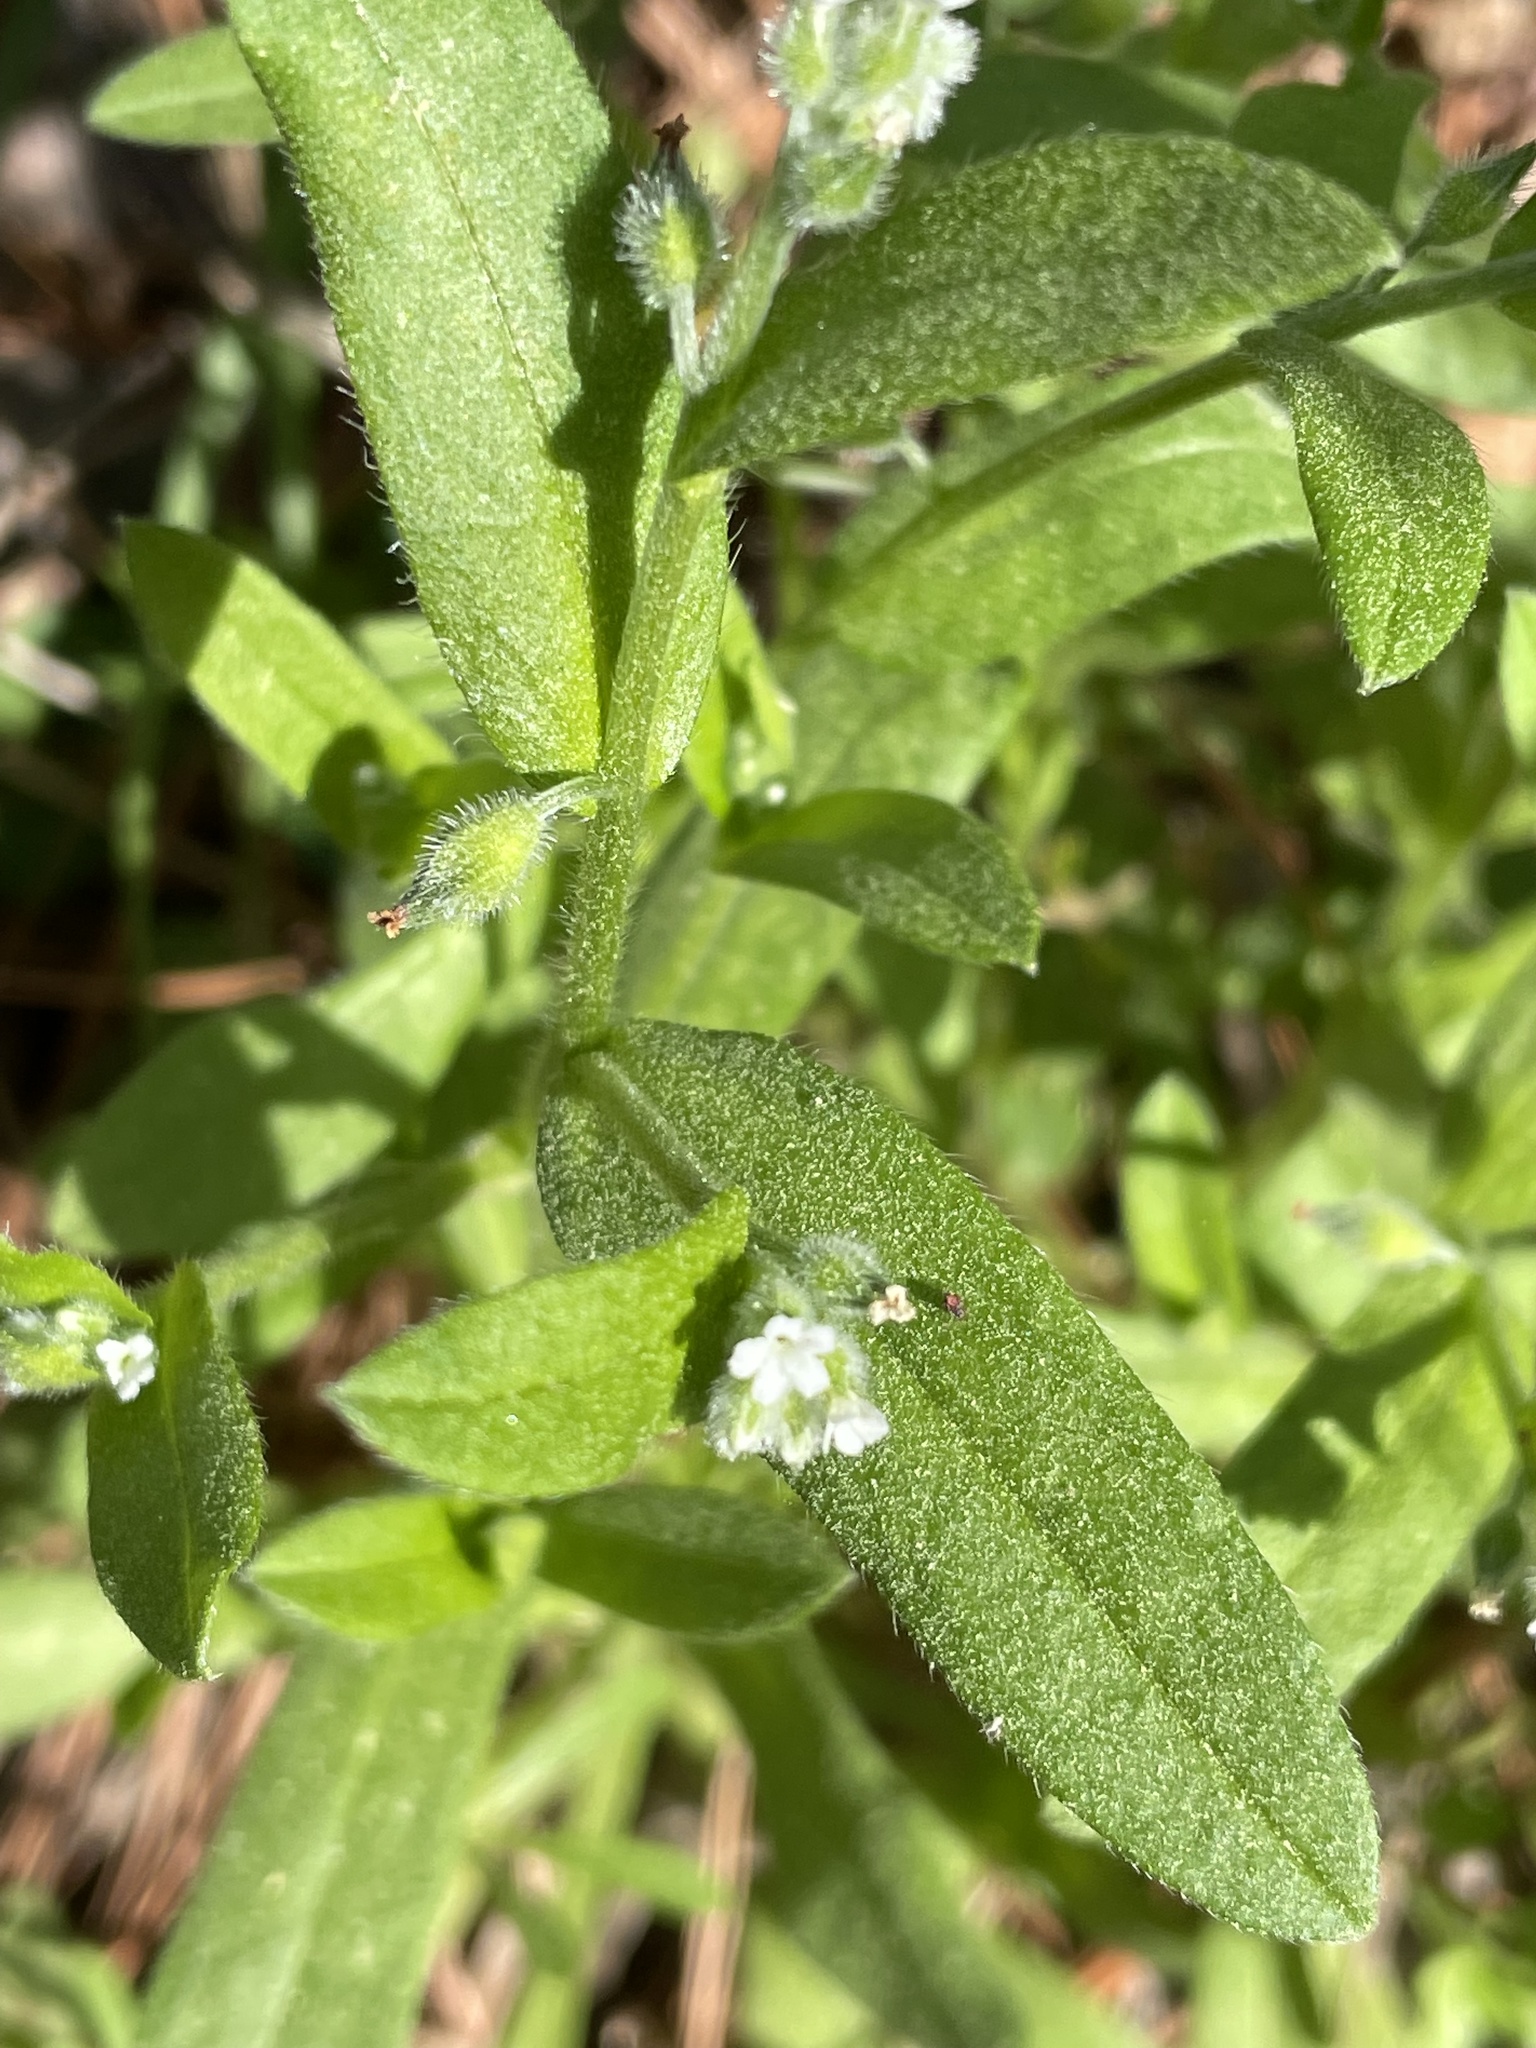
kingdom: Plantae
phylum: Tracheophyta
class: Magnoliopsida
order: Boraginales
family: Boraginaceae
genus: Myosotis
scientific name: Myosotis macrosperma
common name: Large-seed forget-me-not
